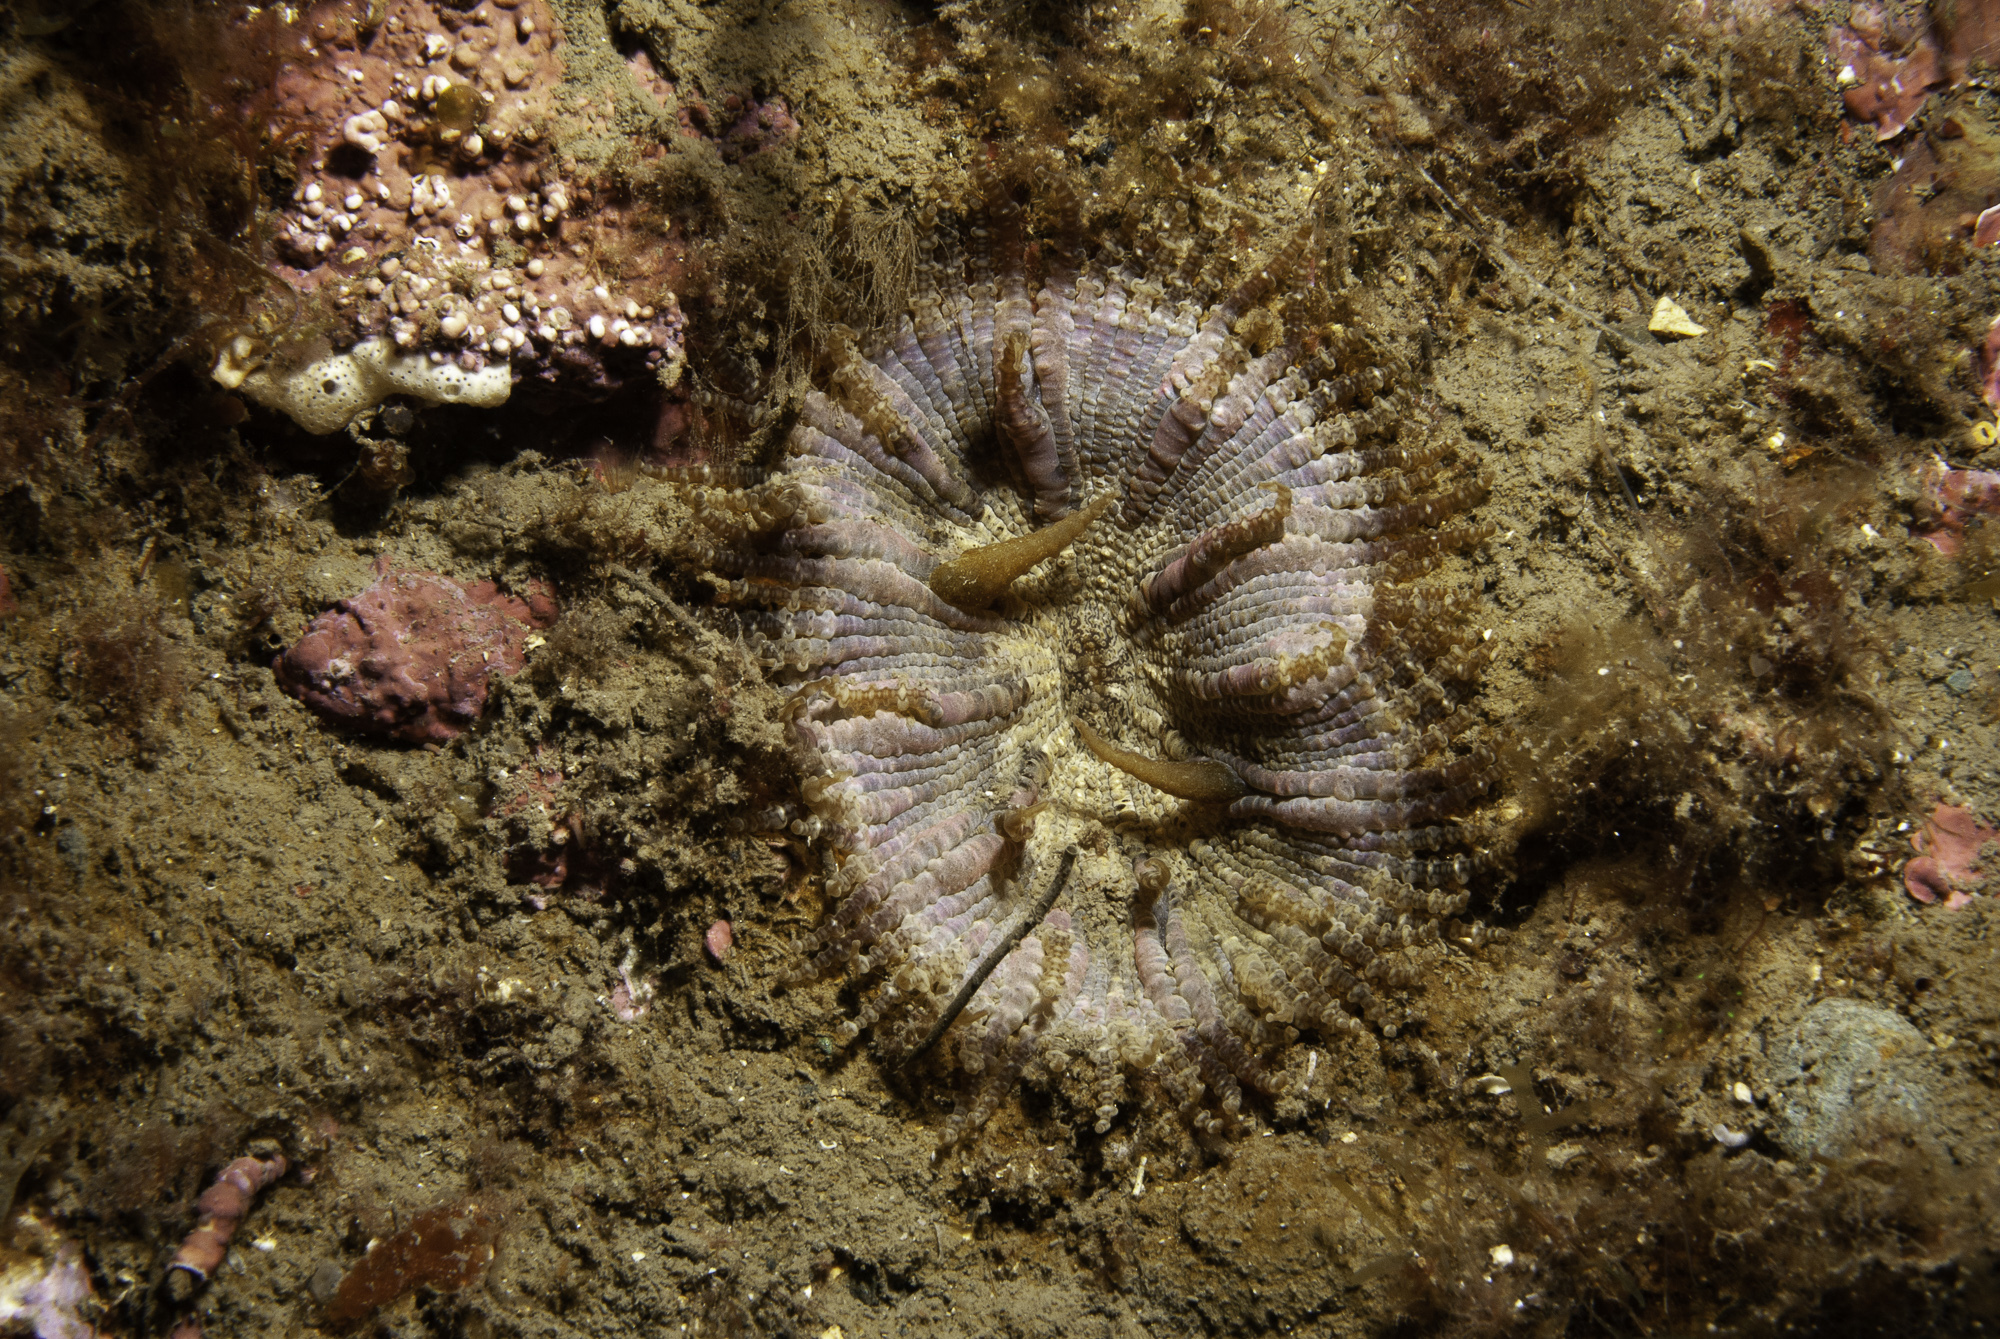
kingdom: Animalia
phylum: Cnidaria
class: Anthozoa
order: Actiniaria
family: Phymanthidae
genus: Phymanthus
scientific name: Phymanthus pulcher
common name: Sea-daisy
